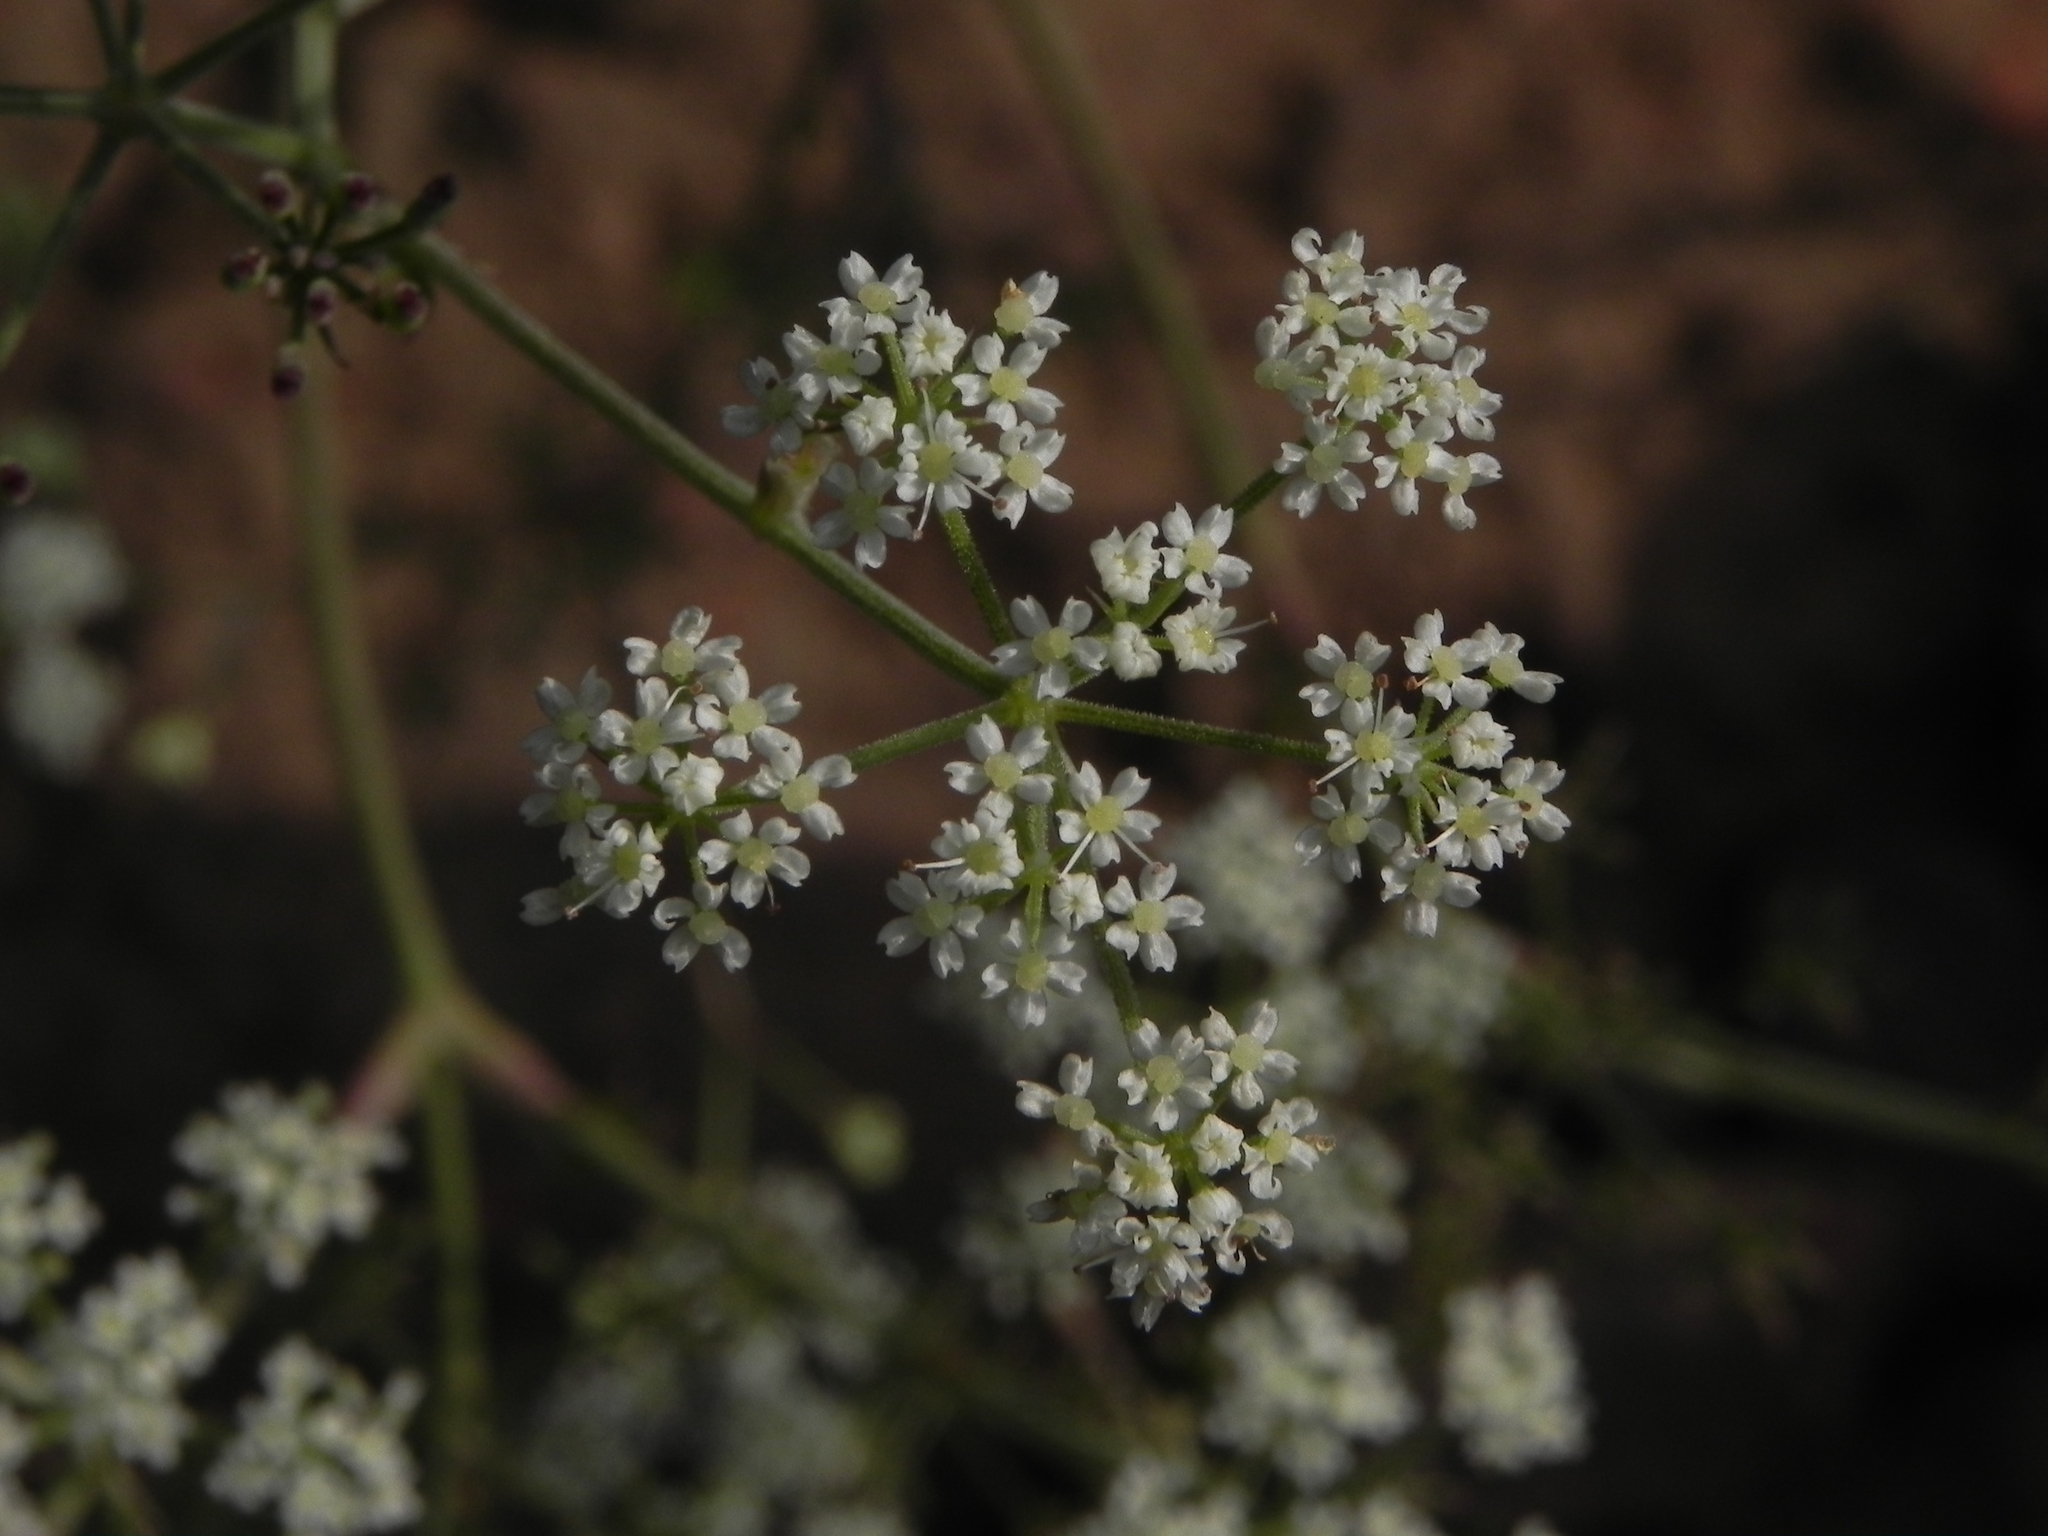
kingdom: Plantae
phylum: Tracheophyta
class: Magnoliopsida
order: Apiales
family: Apiaceae
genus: Pimpinella
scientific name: Pimpinella adscendens
